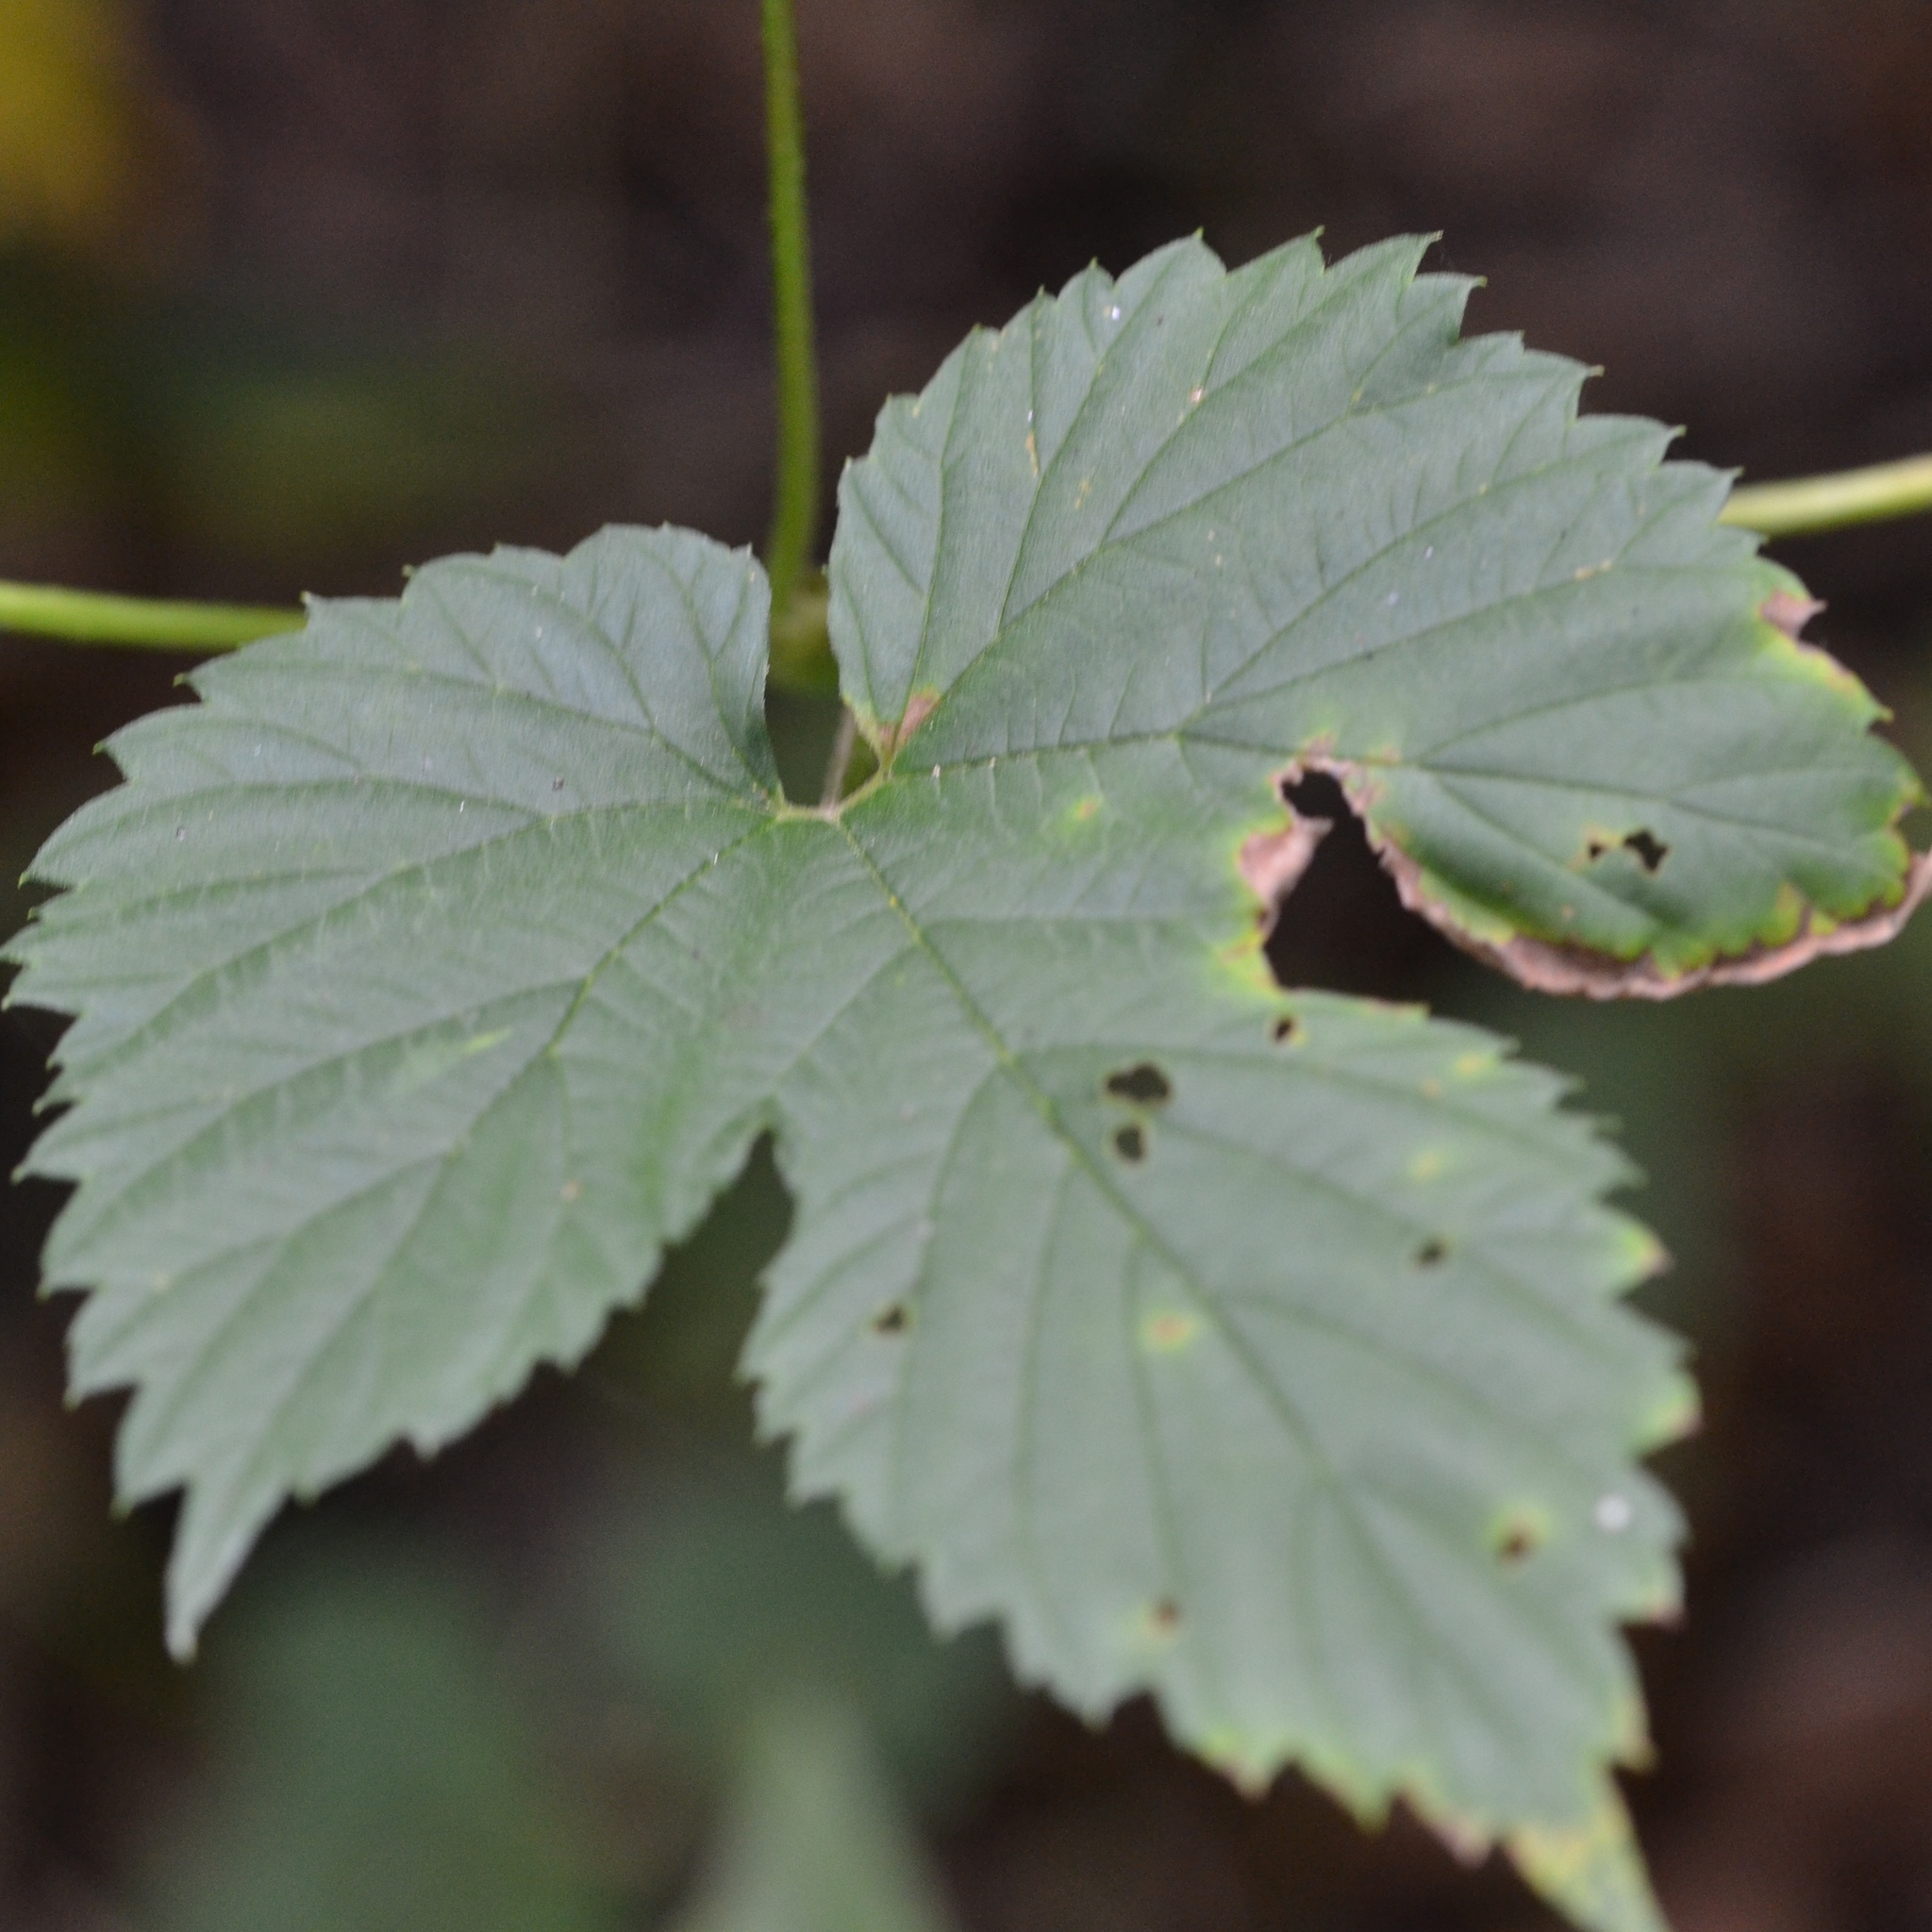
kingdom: Plantae
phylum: Tracheophyta
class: Magnoliopsida
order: Rosales
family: Cannabaceae
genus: Humulus
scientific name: Humulus lupulus
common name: Hop
